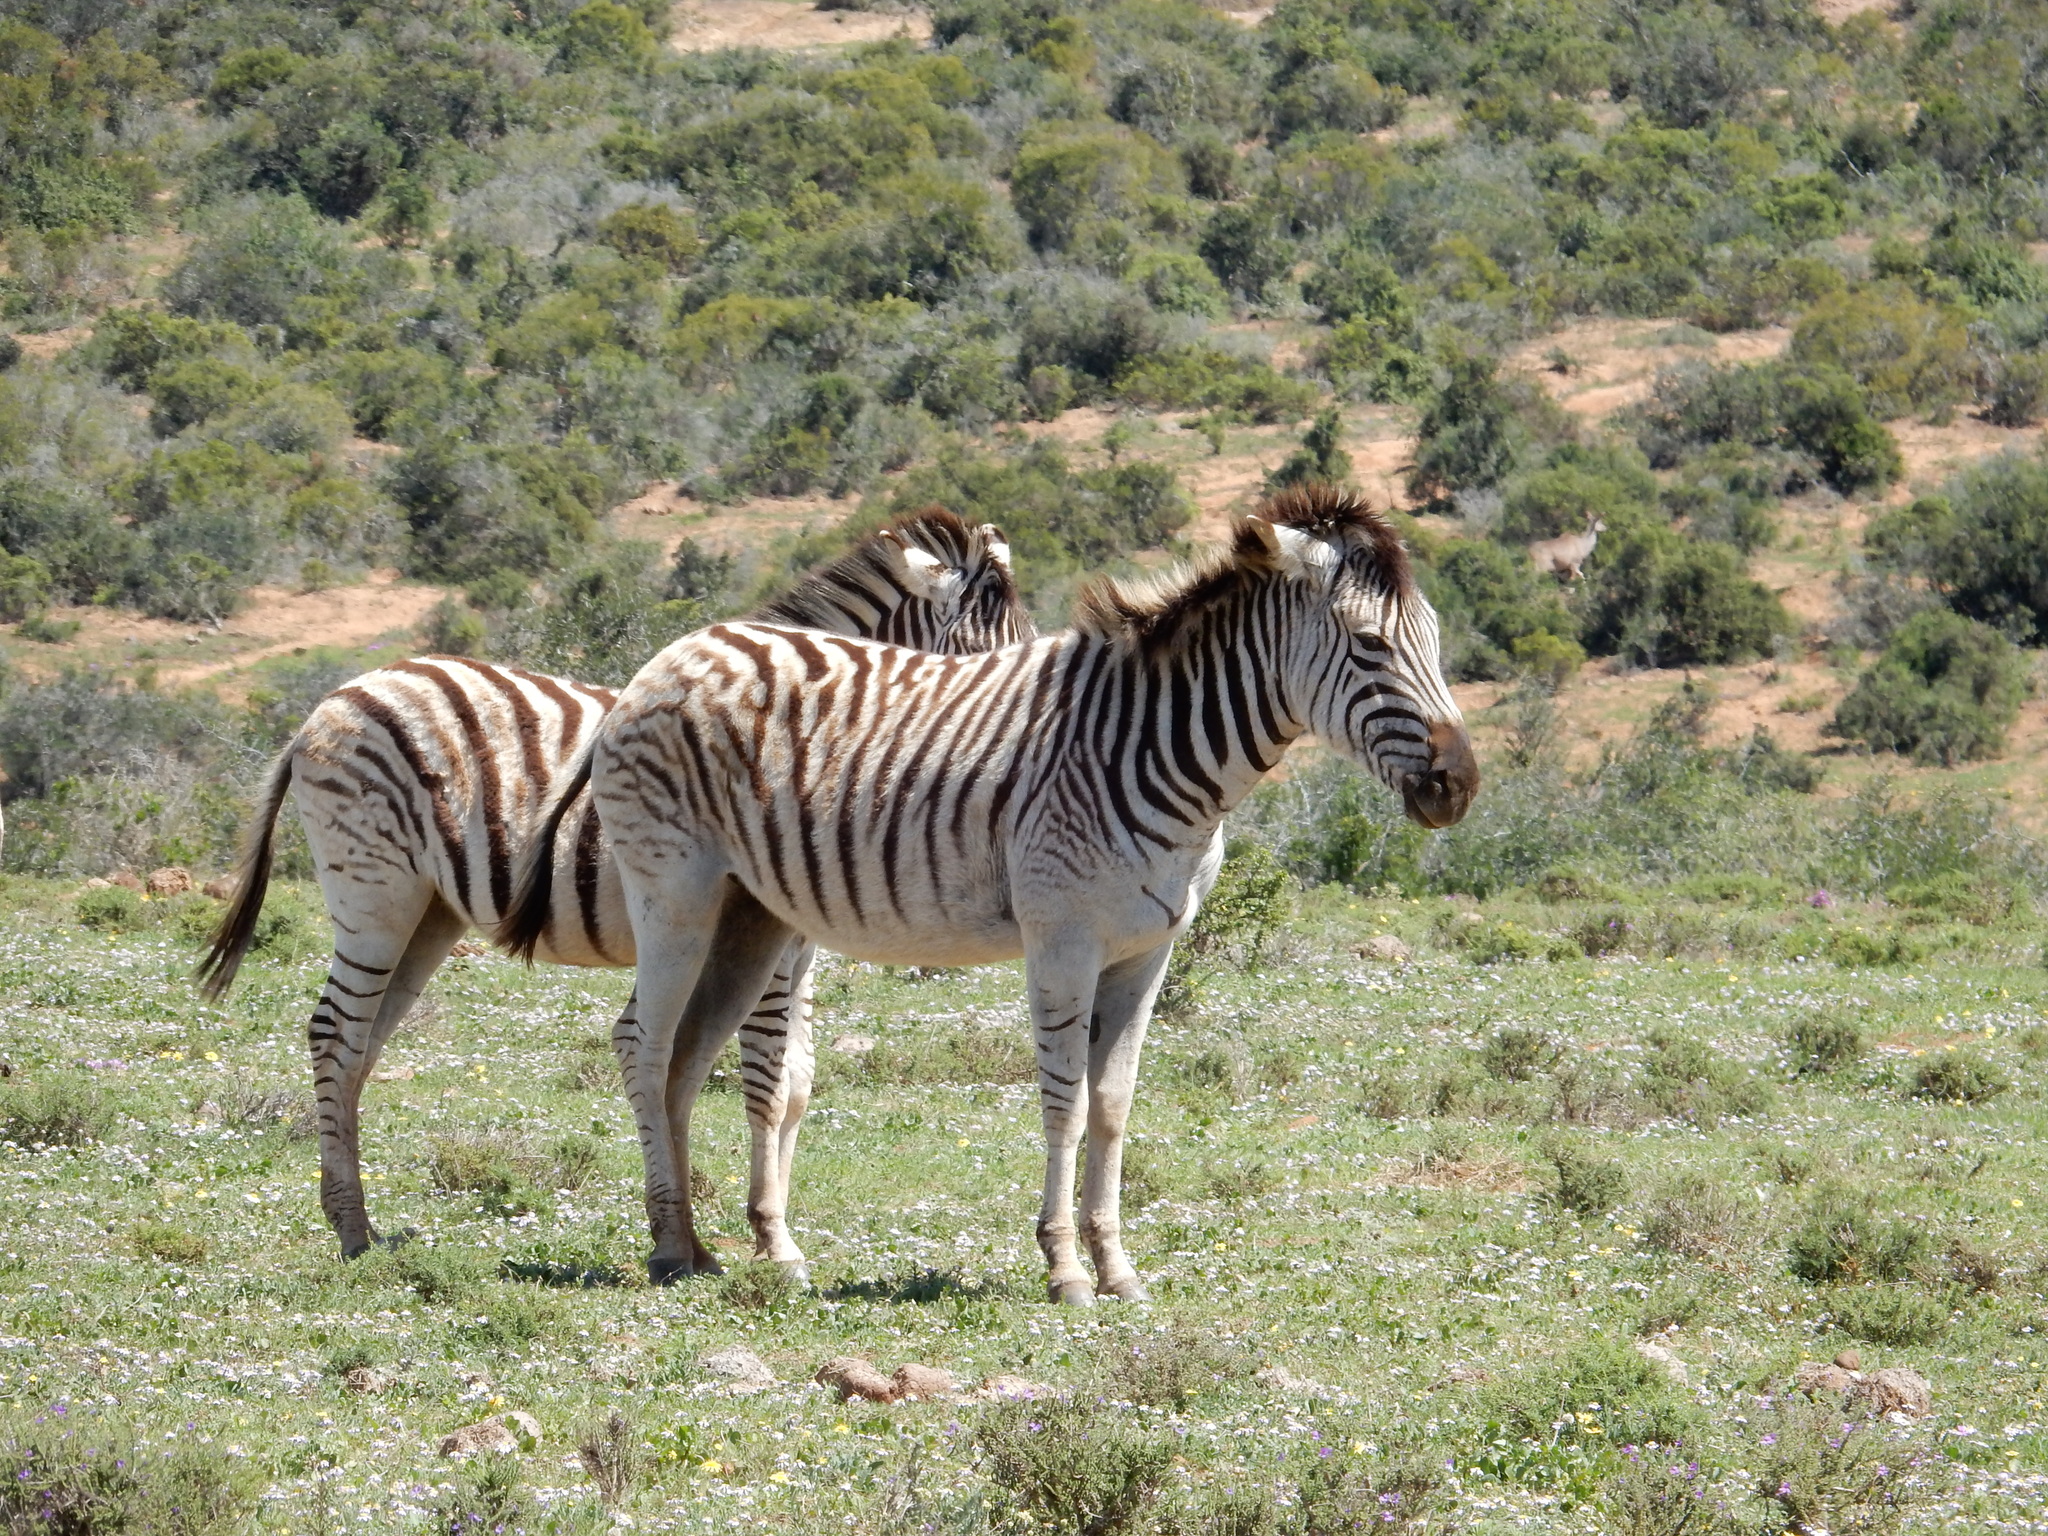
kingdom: Animalia
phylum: Chordata
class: Mammalia
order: Perissodactyla
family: Equidae
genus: Equus
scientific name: Equus quagga
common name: Plains zebra
